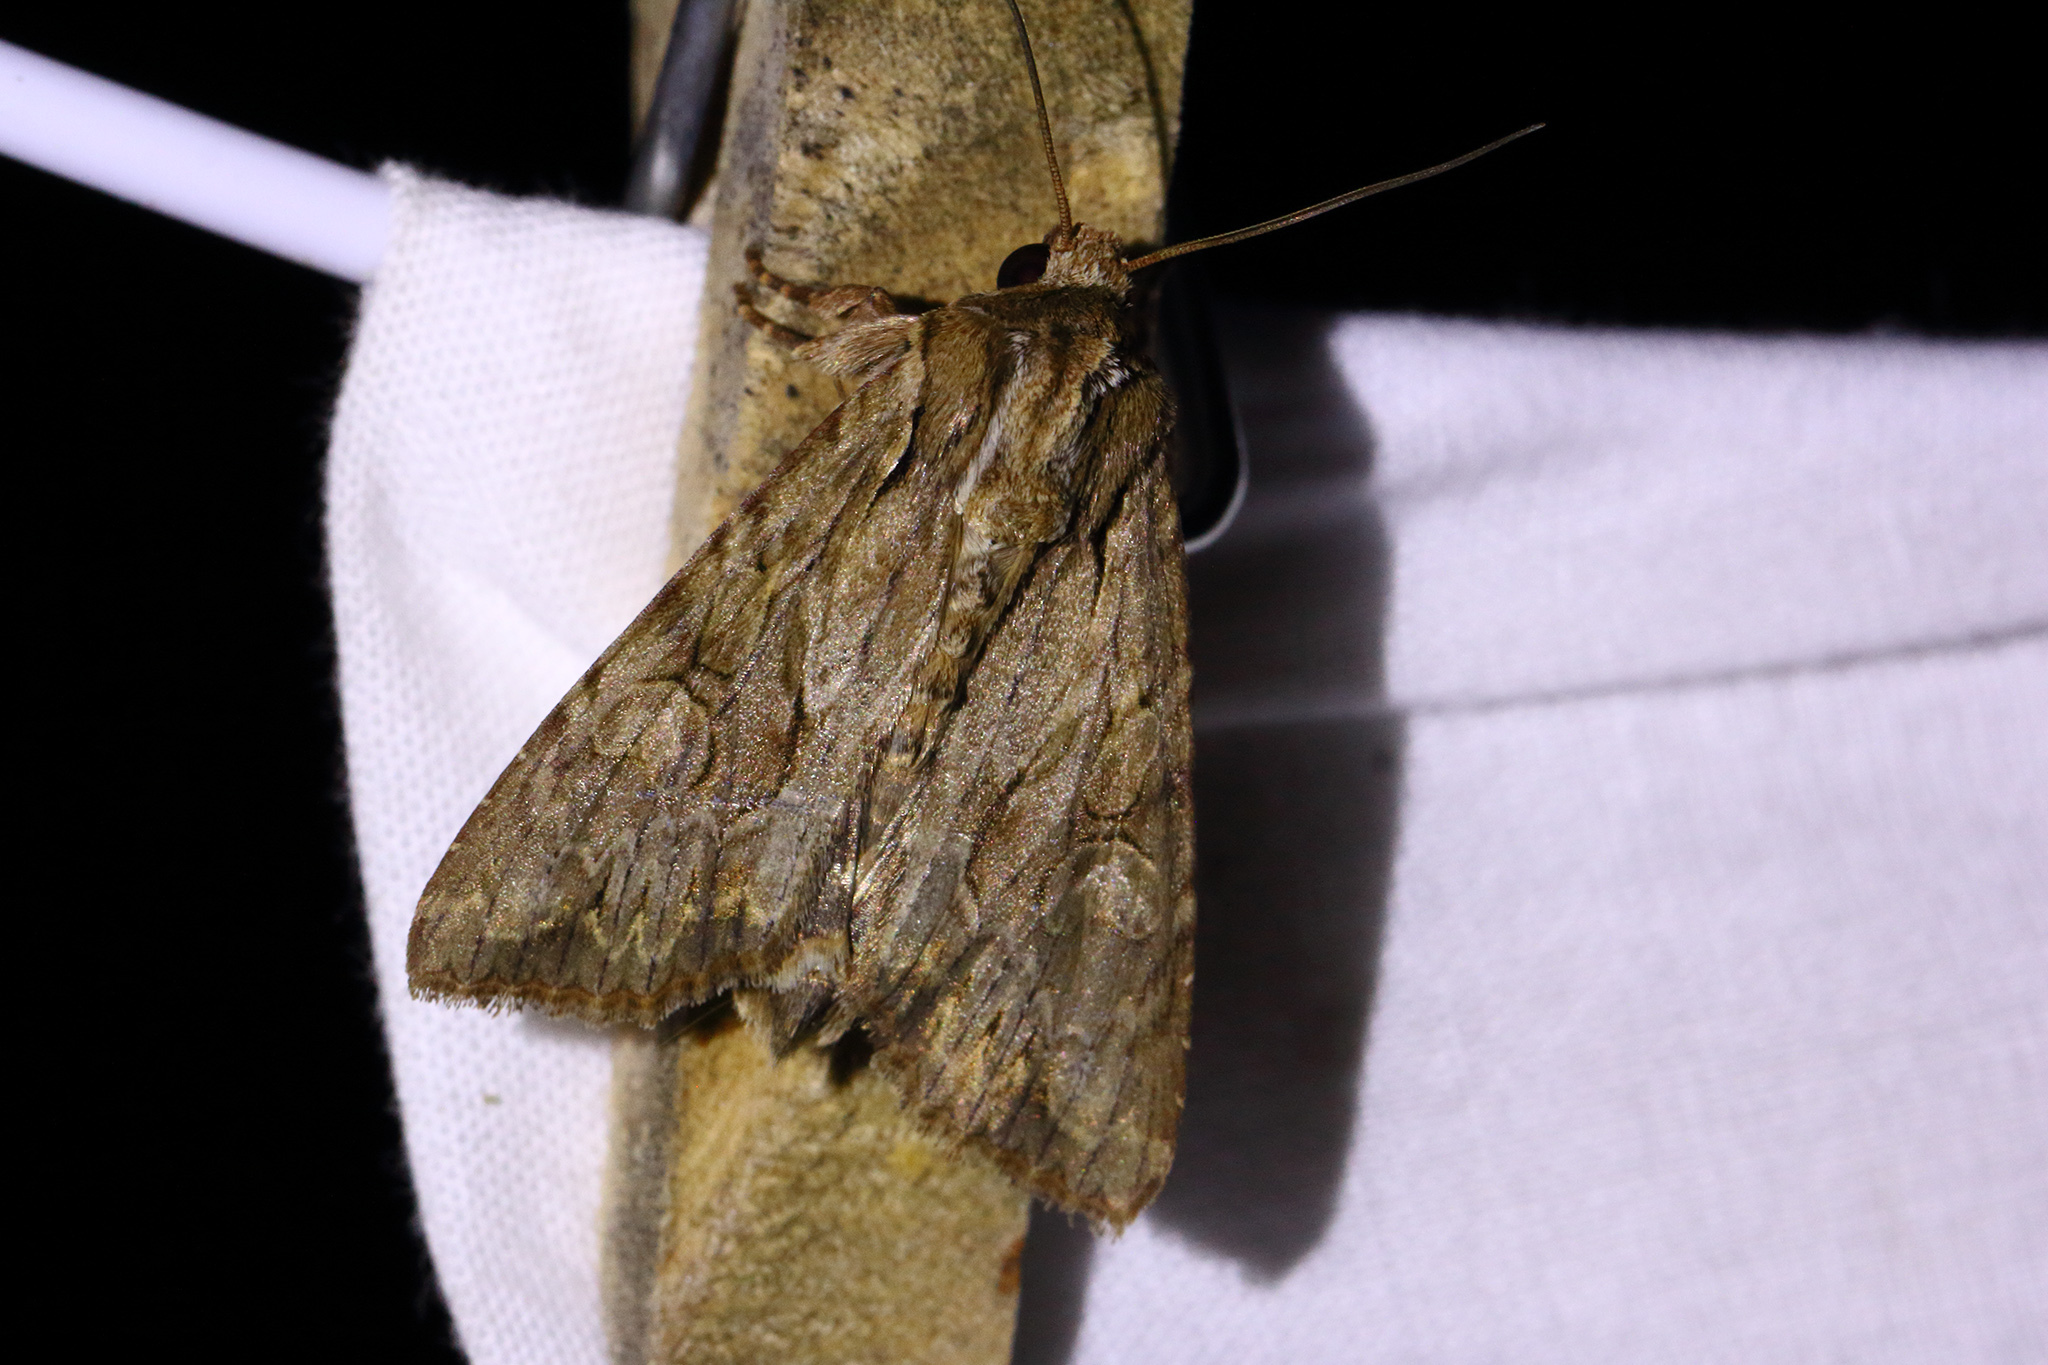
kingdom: Animalia
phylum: Arthropoda
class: Insecta
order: Lepidoptera
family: Noctuidae
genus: Apamea
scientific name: Apamea monoglypha
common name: Dark arches
